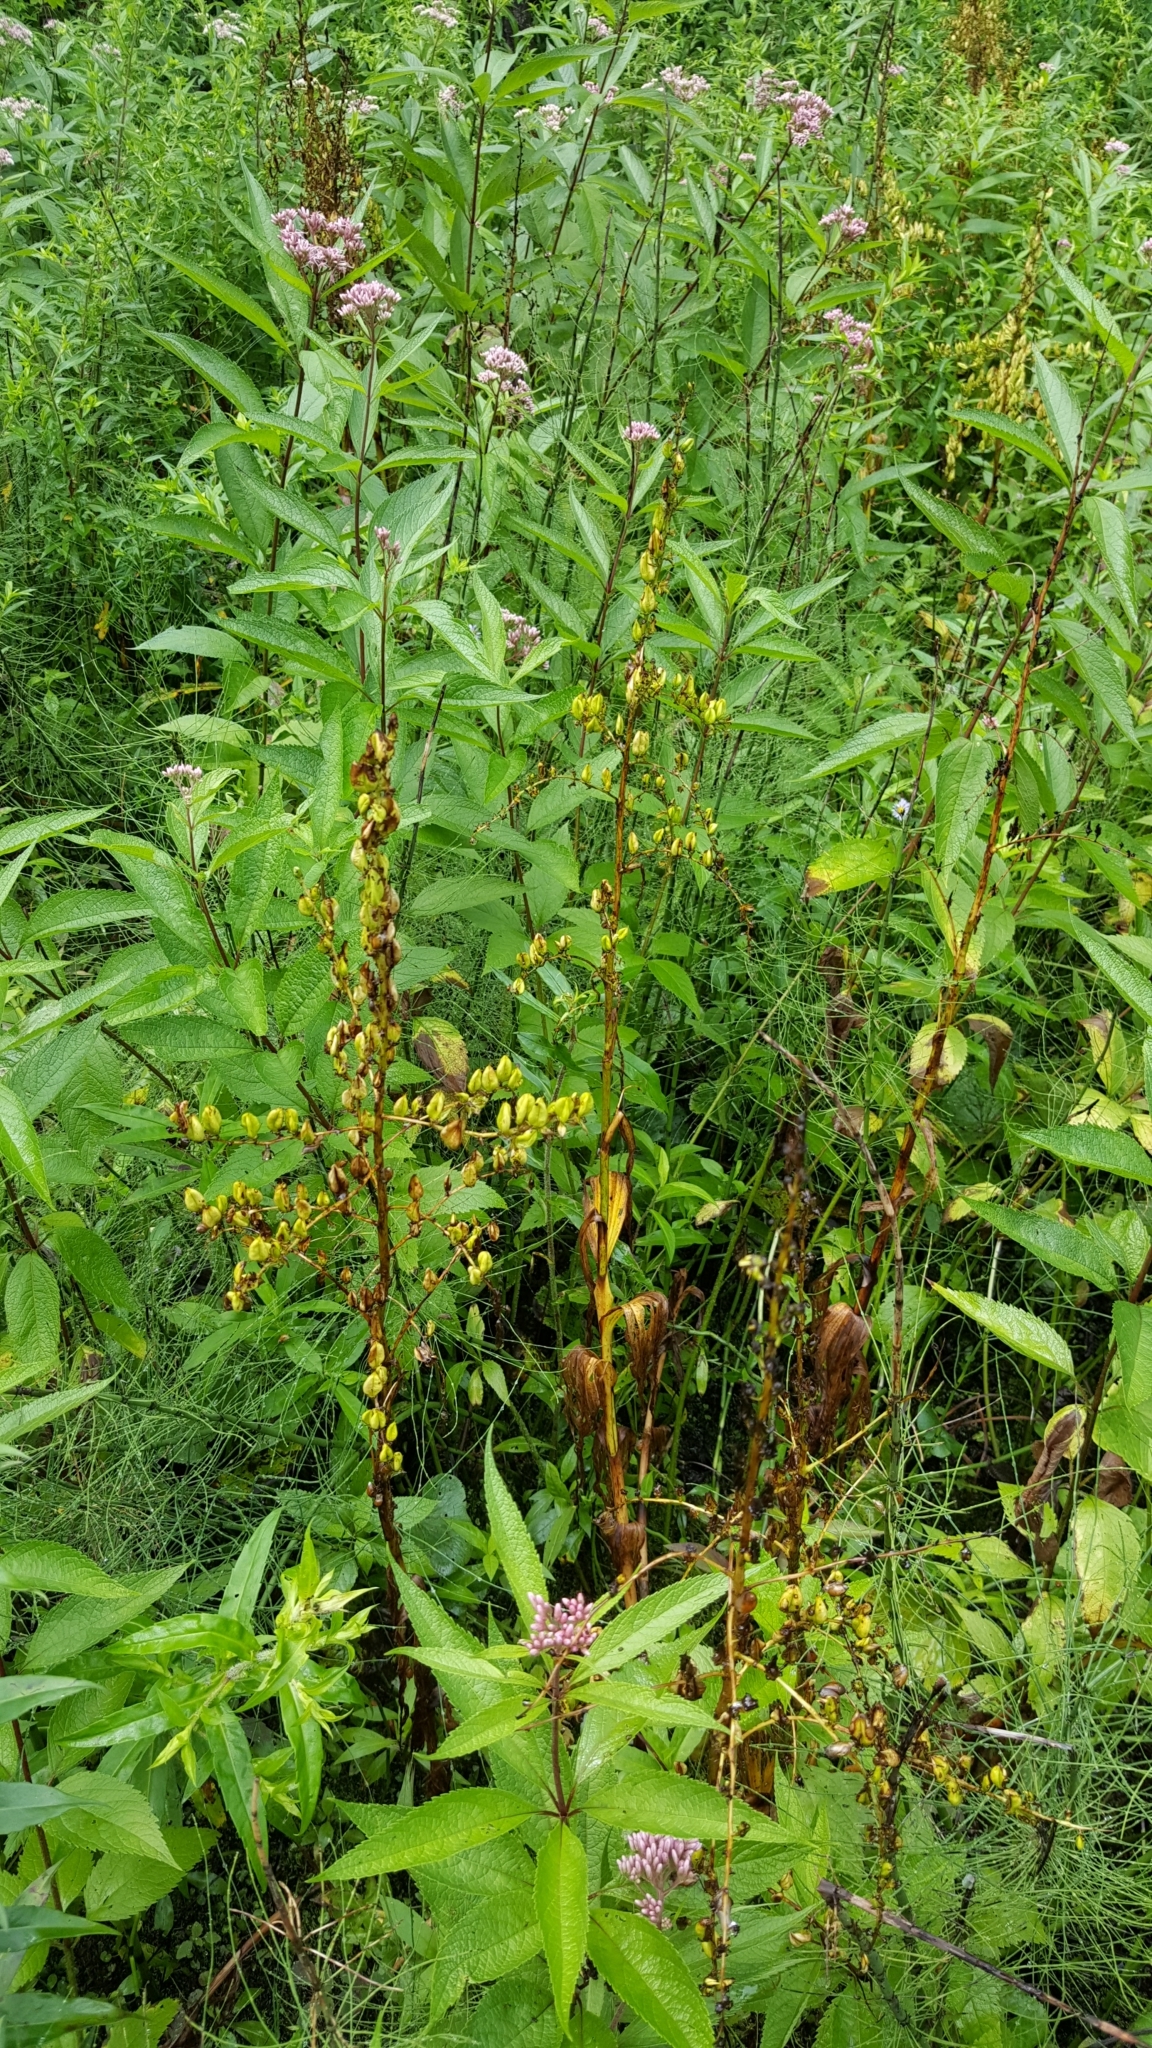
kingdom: Plantae
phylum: Tracheophyta
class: Liliopsida
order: Liliales
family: Melanthiaceae
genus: Veratrum
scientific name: Veratrum viride
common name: American false hellebore
